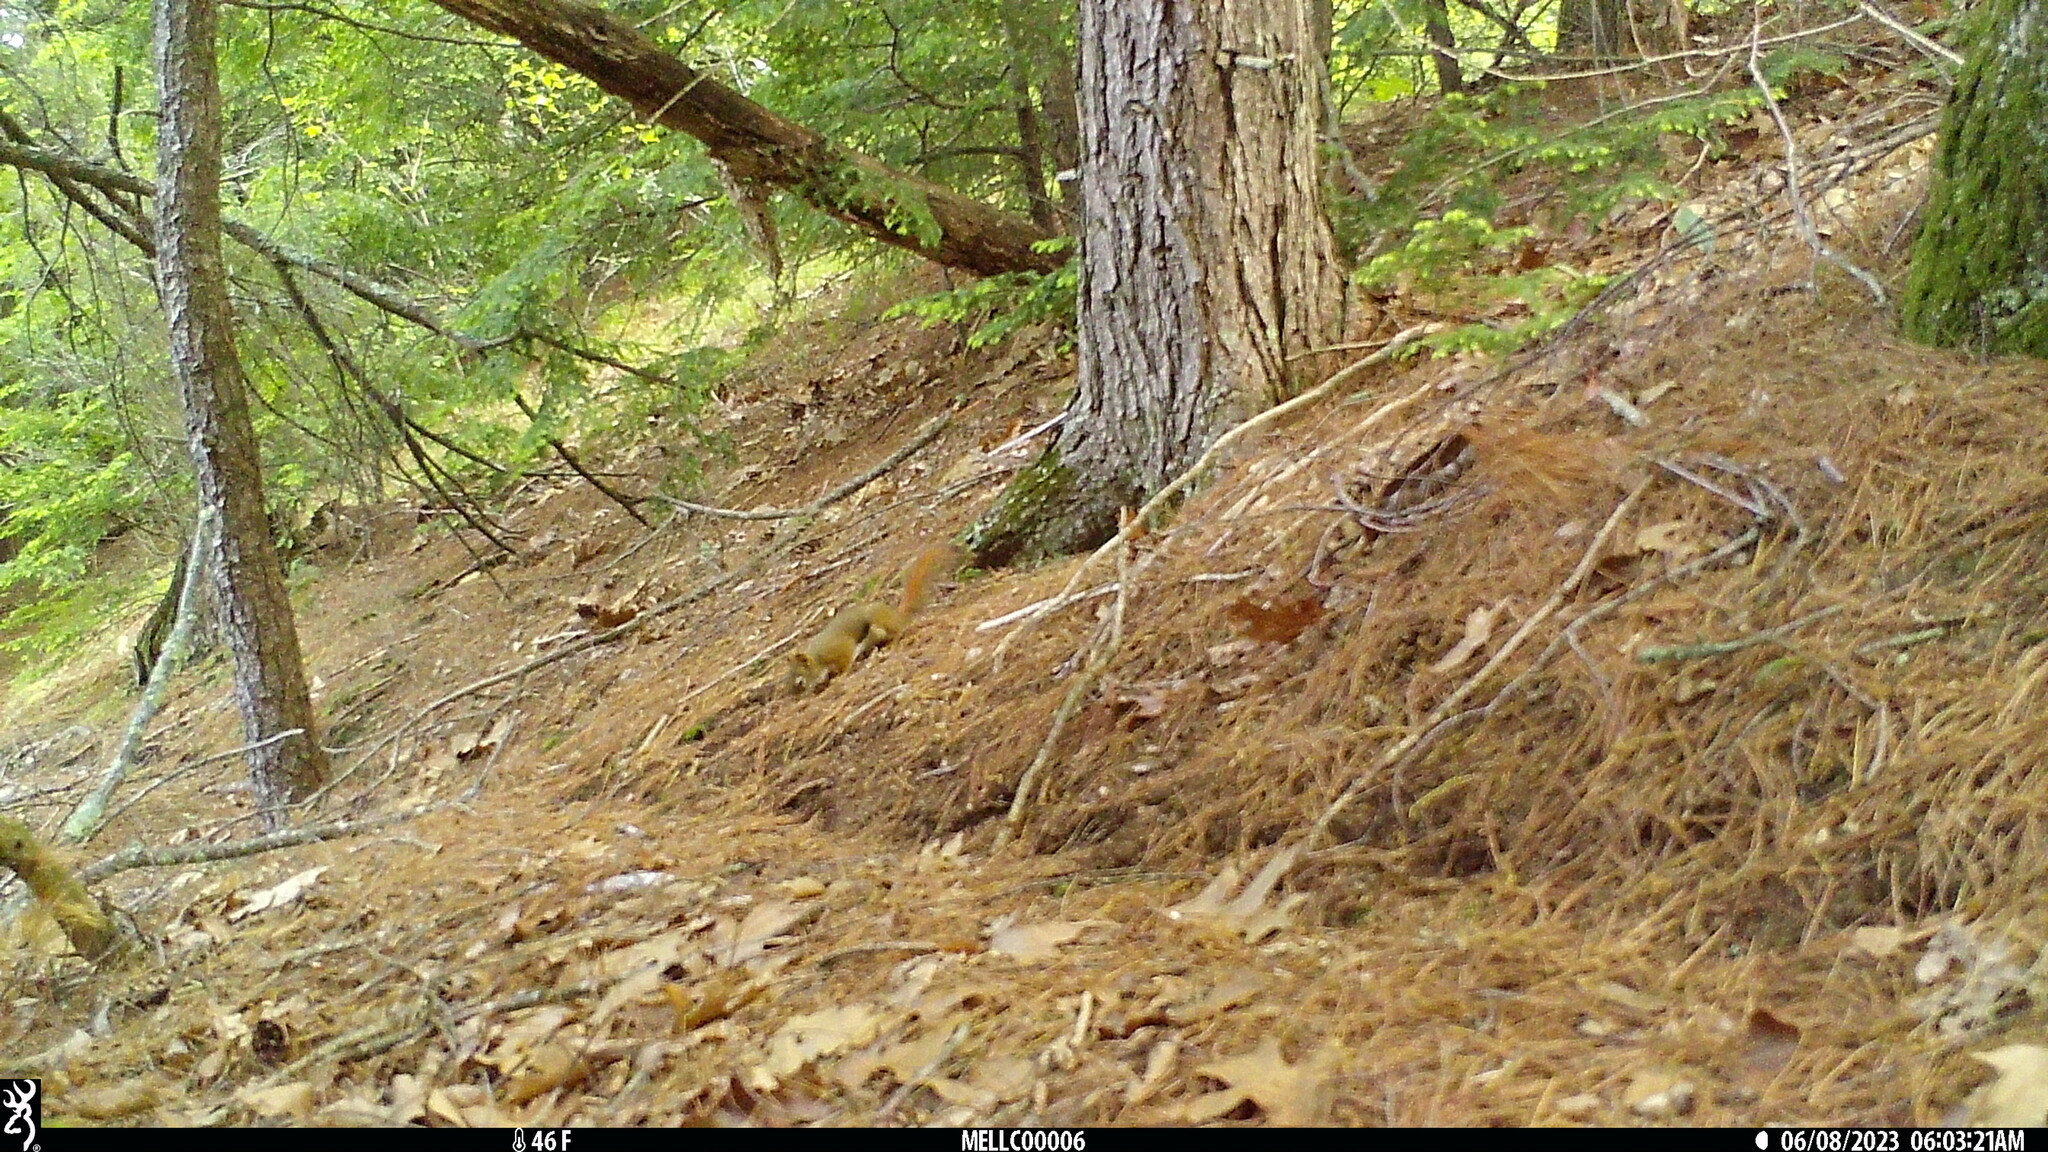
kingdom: Animalia
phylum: Chordata
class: Mammalia
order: Rodentia
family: Sciuridae
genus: Tamiasciurus
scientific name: Tamiasciurus hudsonicus
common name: Red squirrel
